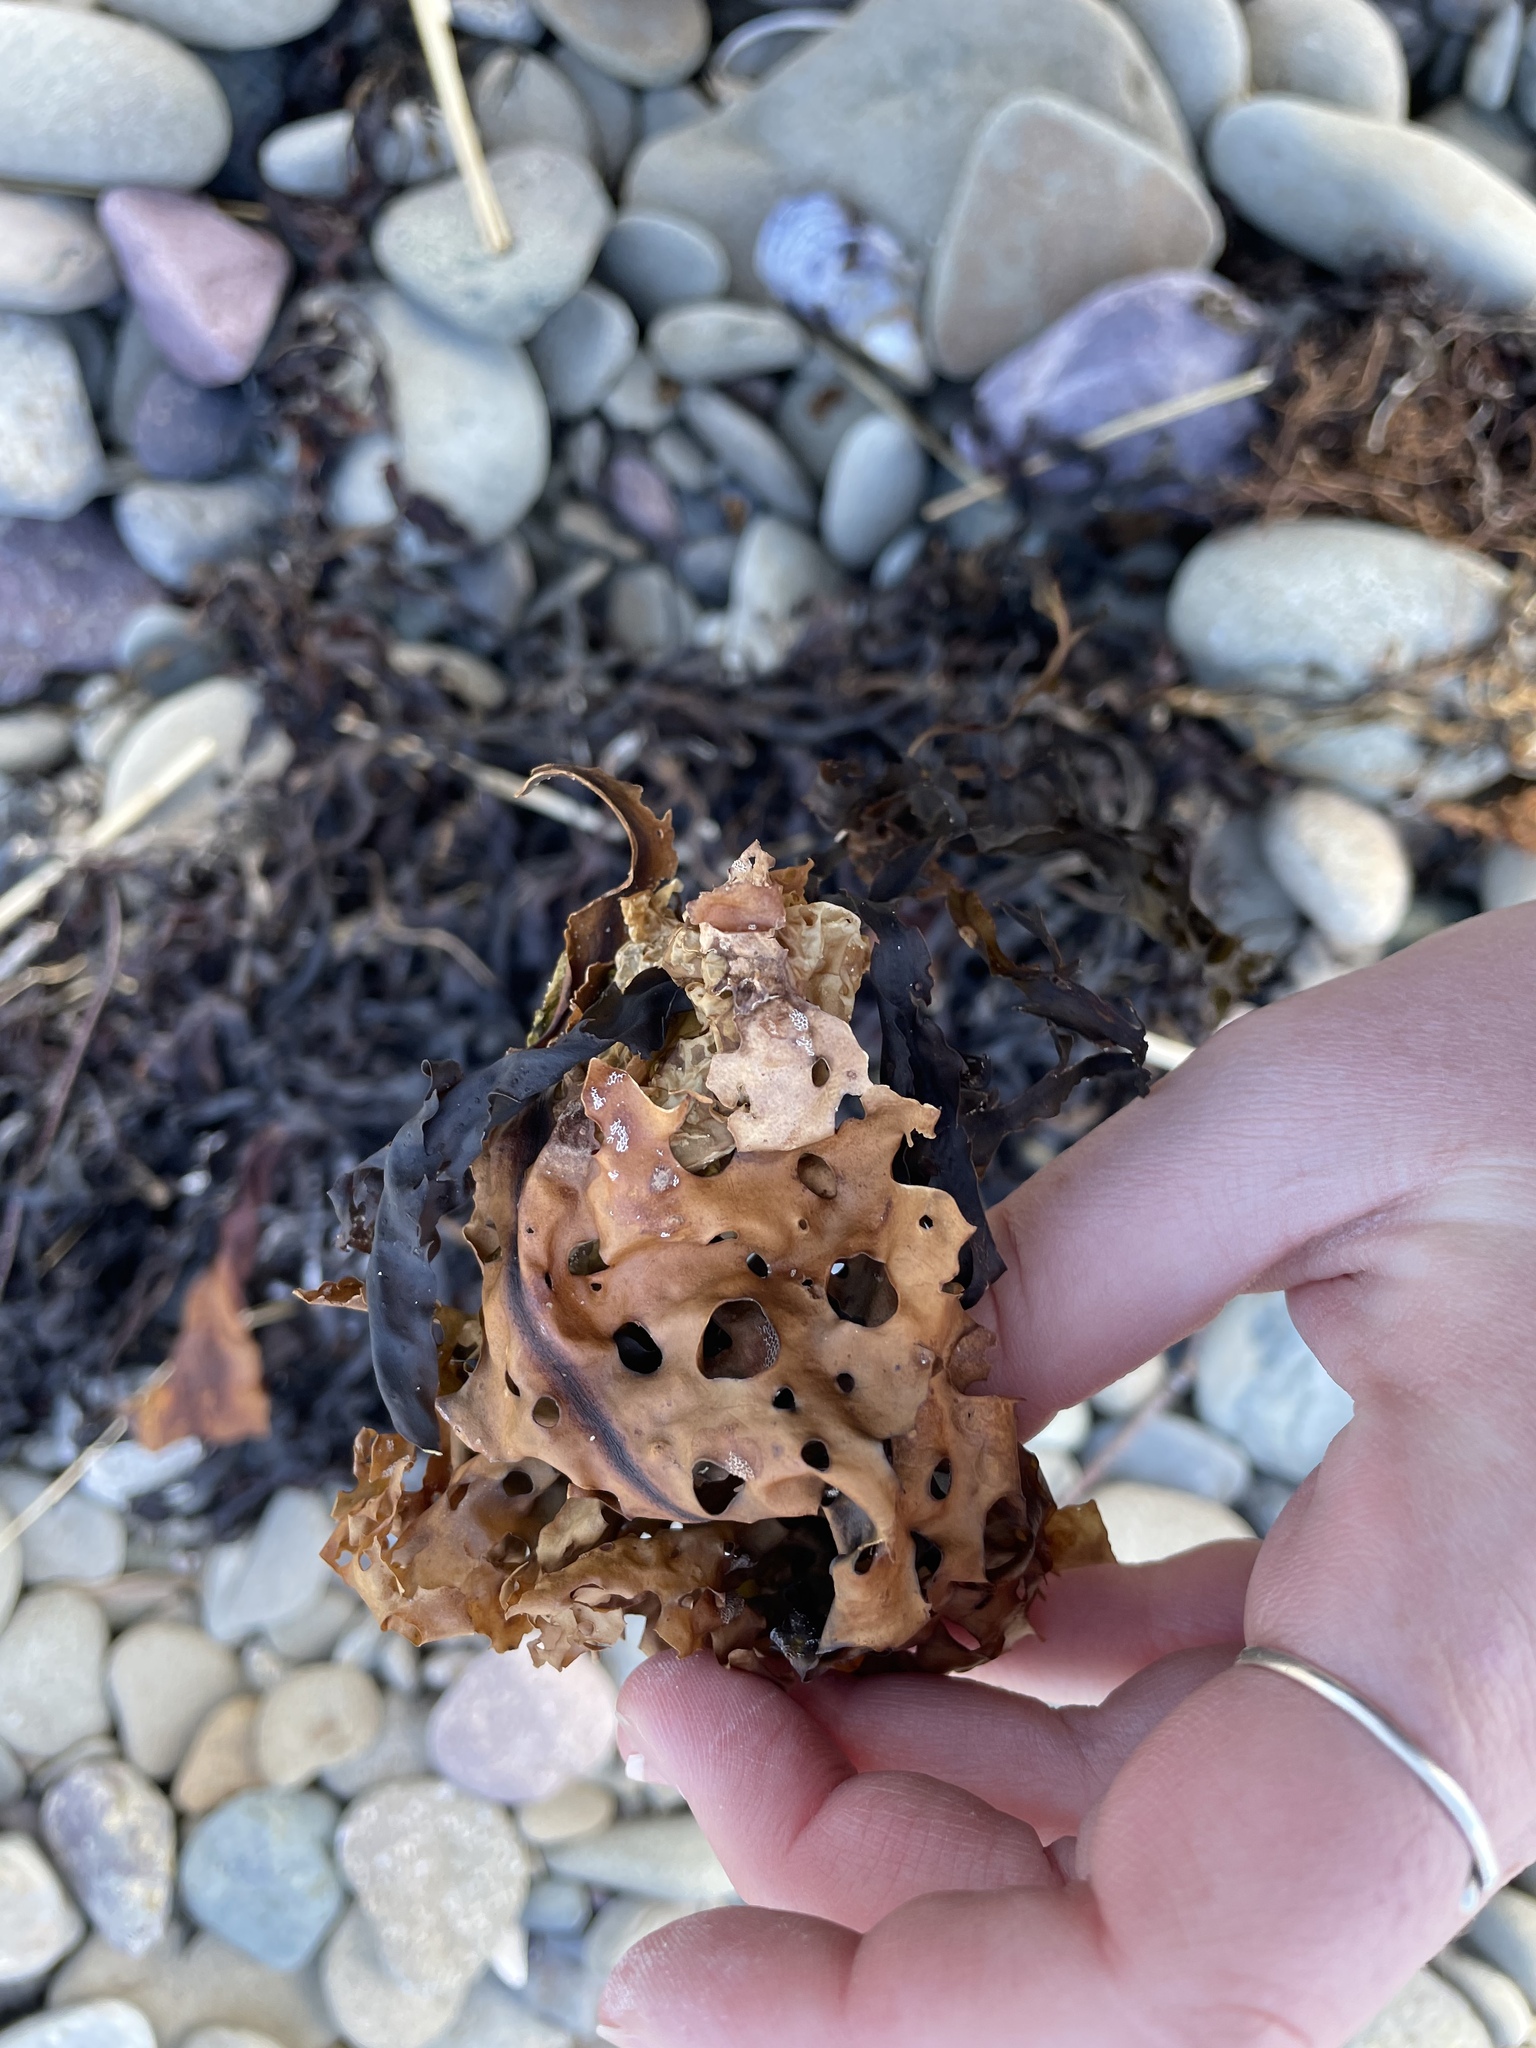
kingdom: Chromista
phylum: Ochrophyta
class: Phaeophyceae
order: Laminariales
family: Costariaceae
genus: Agarum
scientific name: Agarum clathratum
